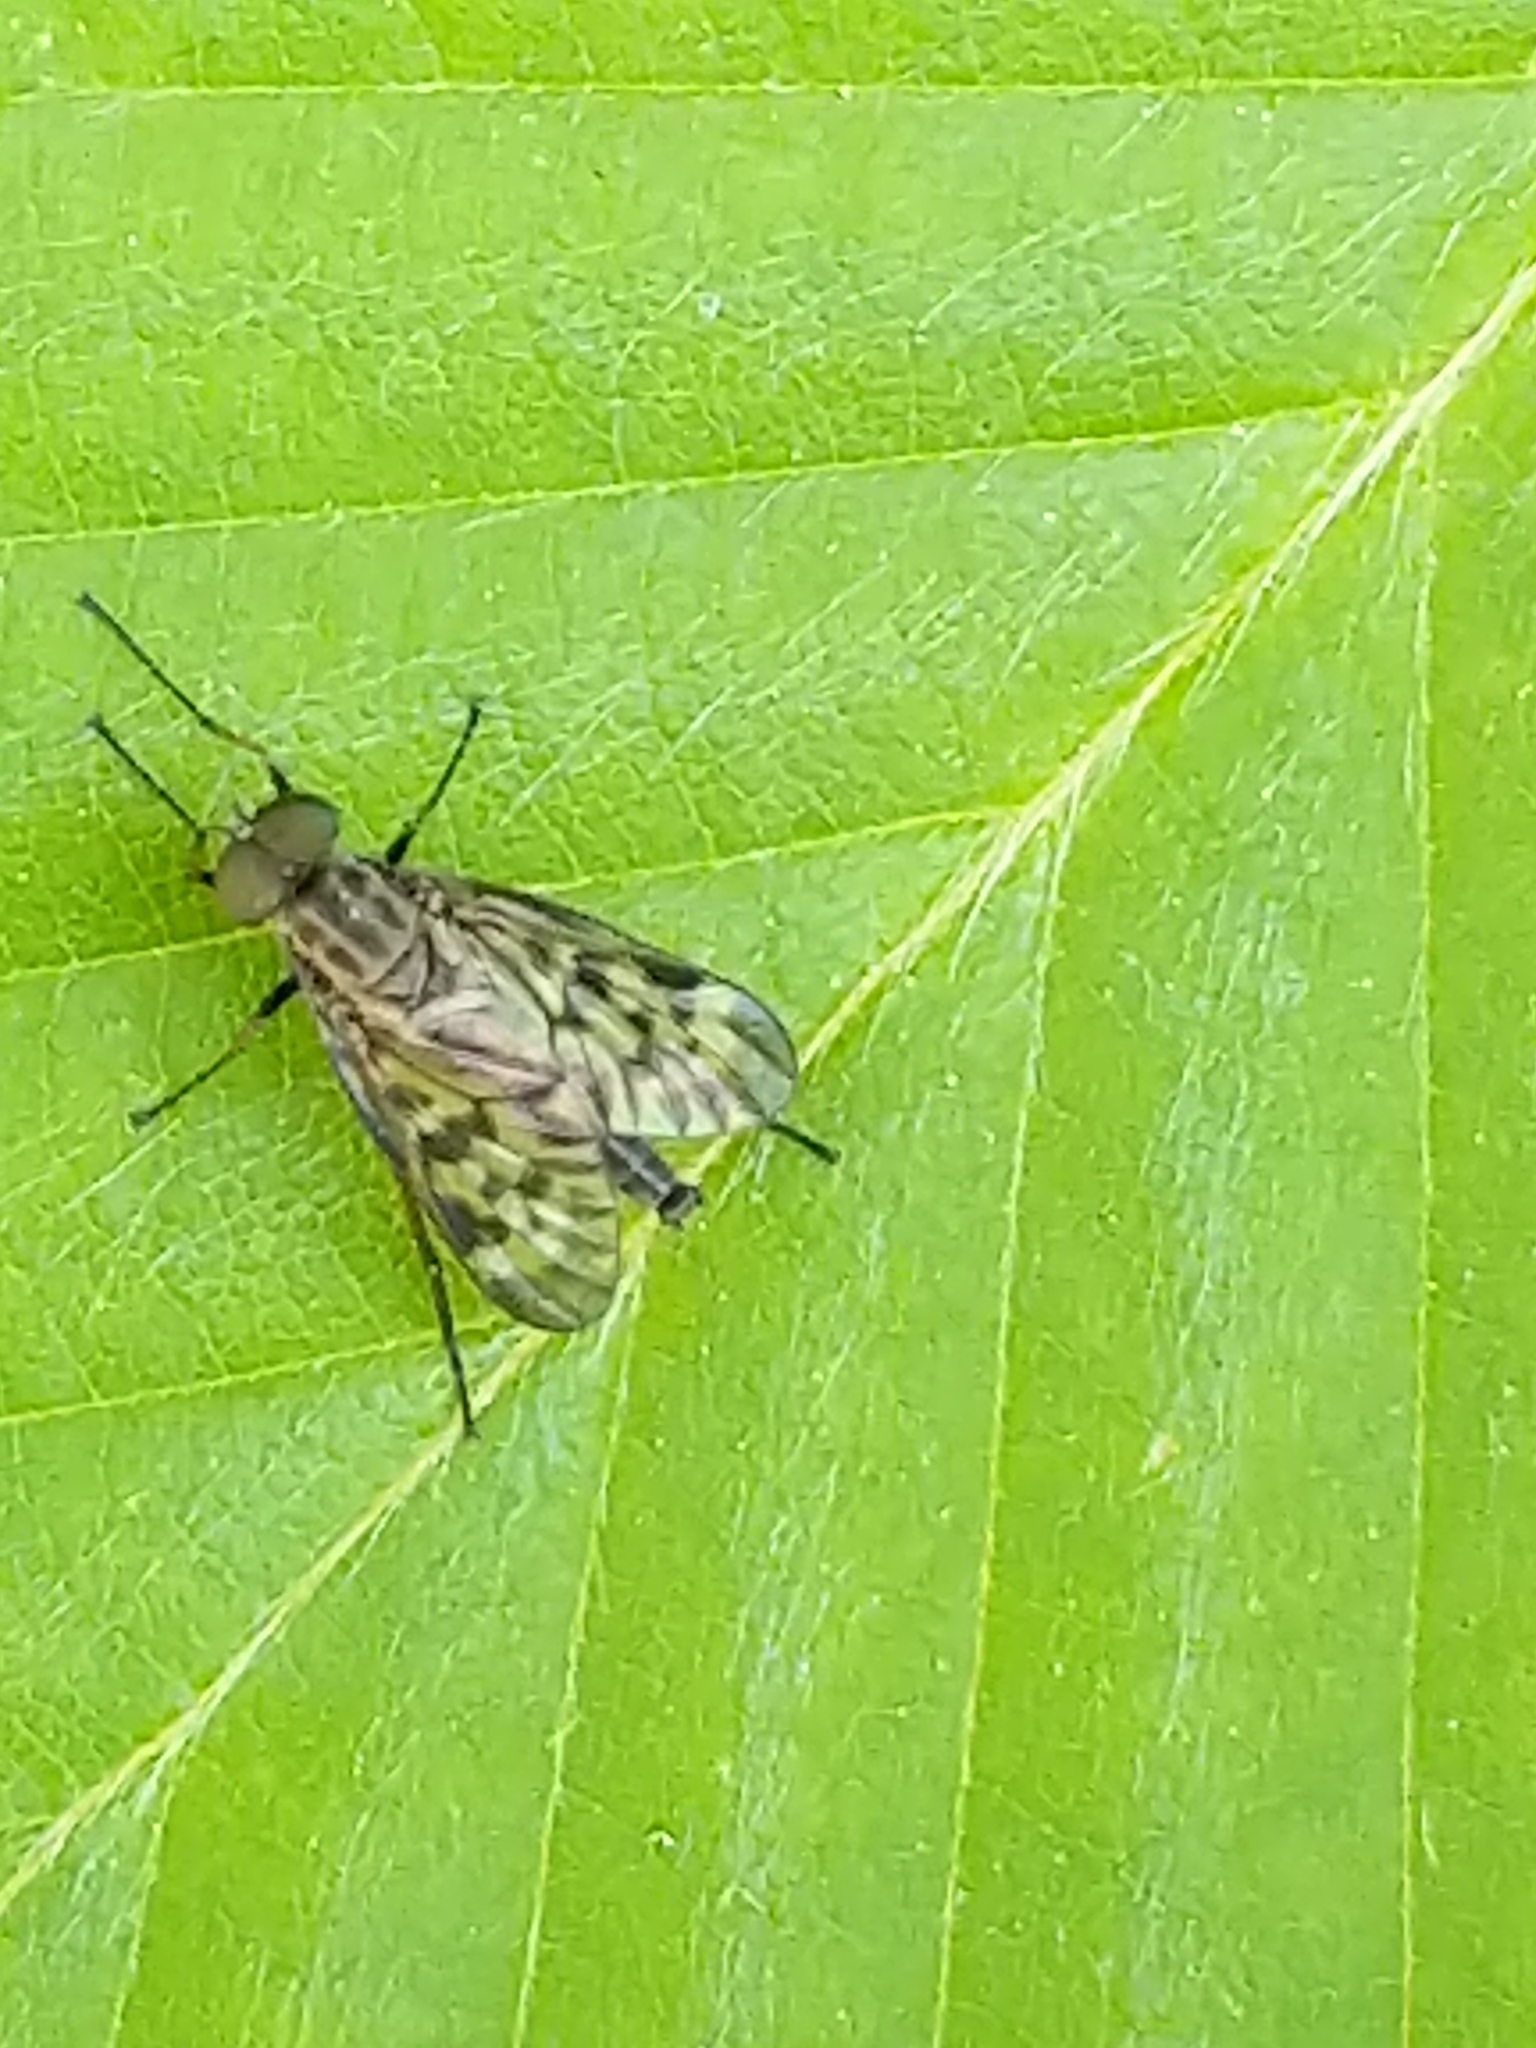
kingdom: Animalia
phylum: Arthropoda
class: Insecta
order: Diptera
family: Rhagionidae
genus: Rhagio
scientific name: Rhagio punctipennis
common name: Lesser variegated snipe fly
